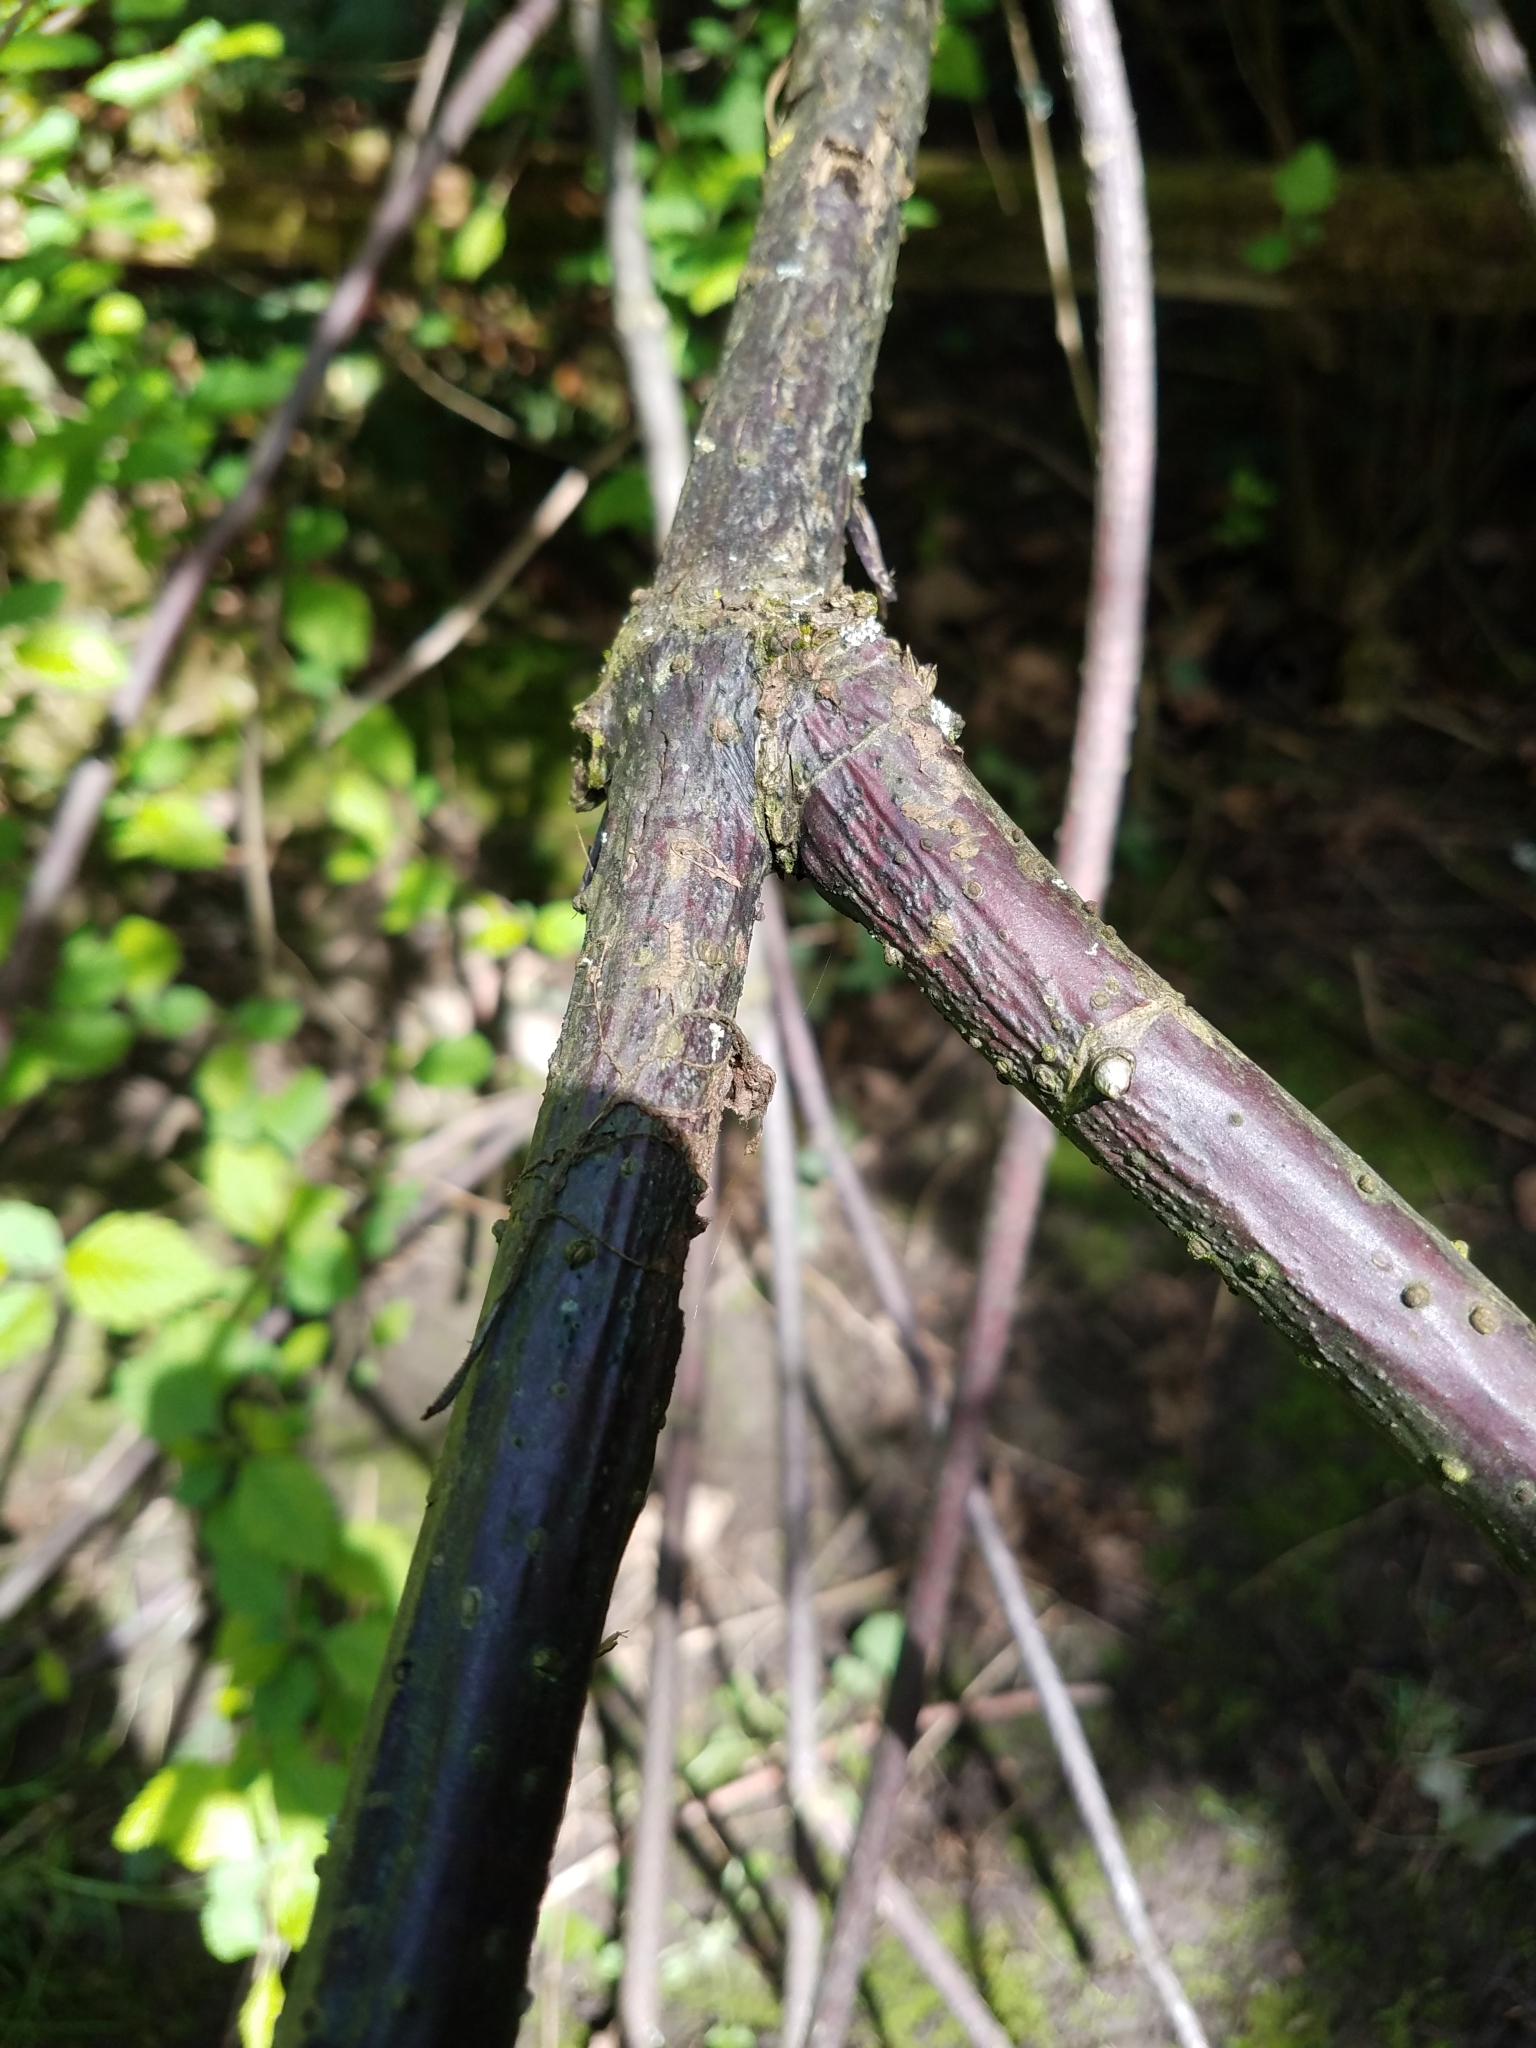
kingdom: Plantae
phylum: Tracheophyta
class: Magnoliopsida
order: Dipsacales
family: Viburnaceae
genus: Sambucus
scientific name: Sambucus racemosa
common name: Red-berried elder
